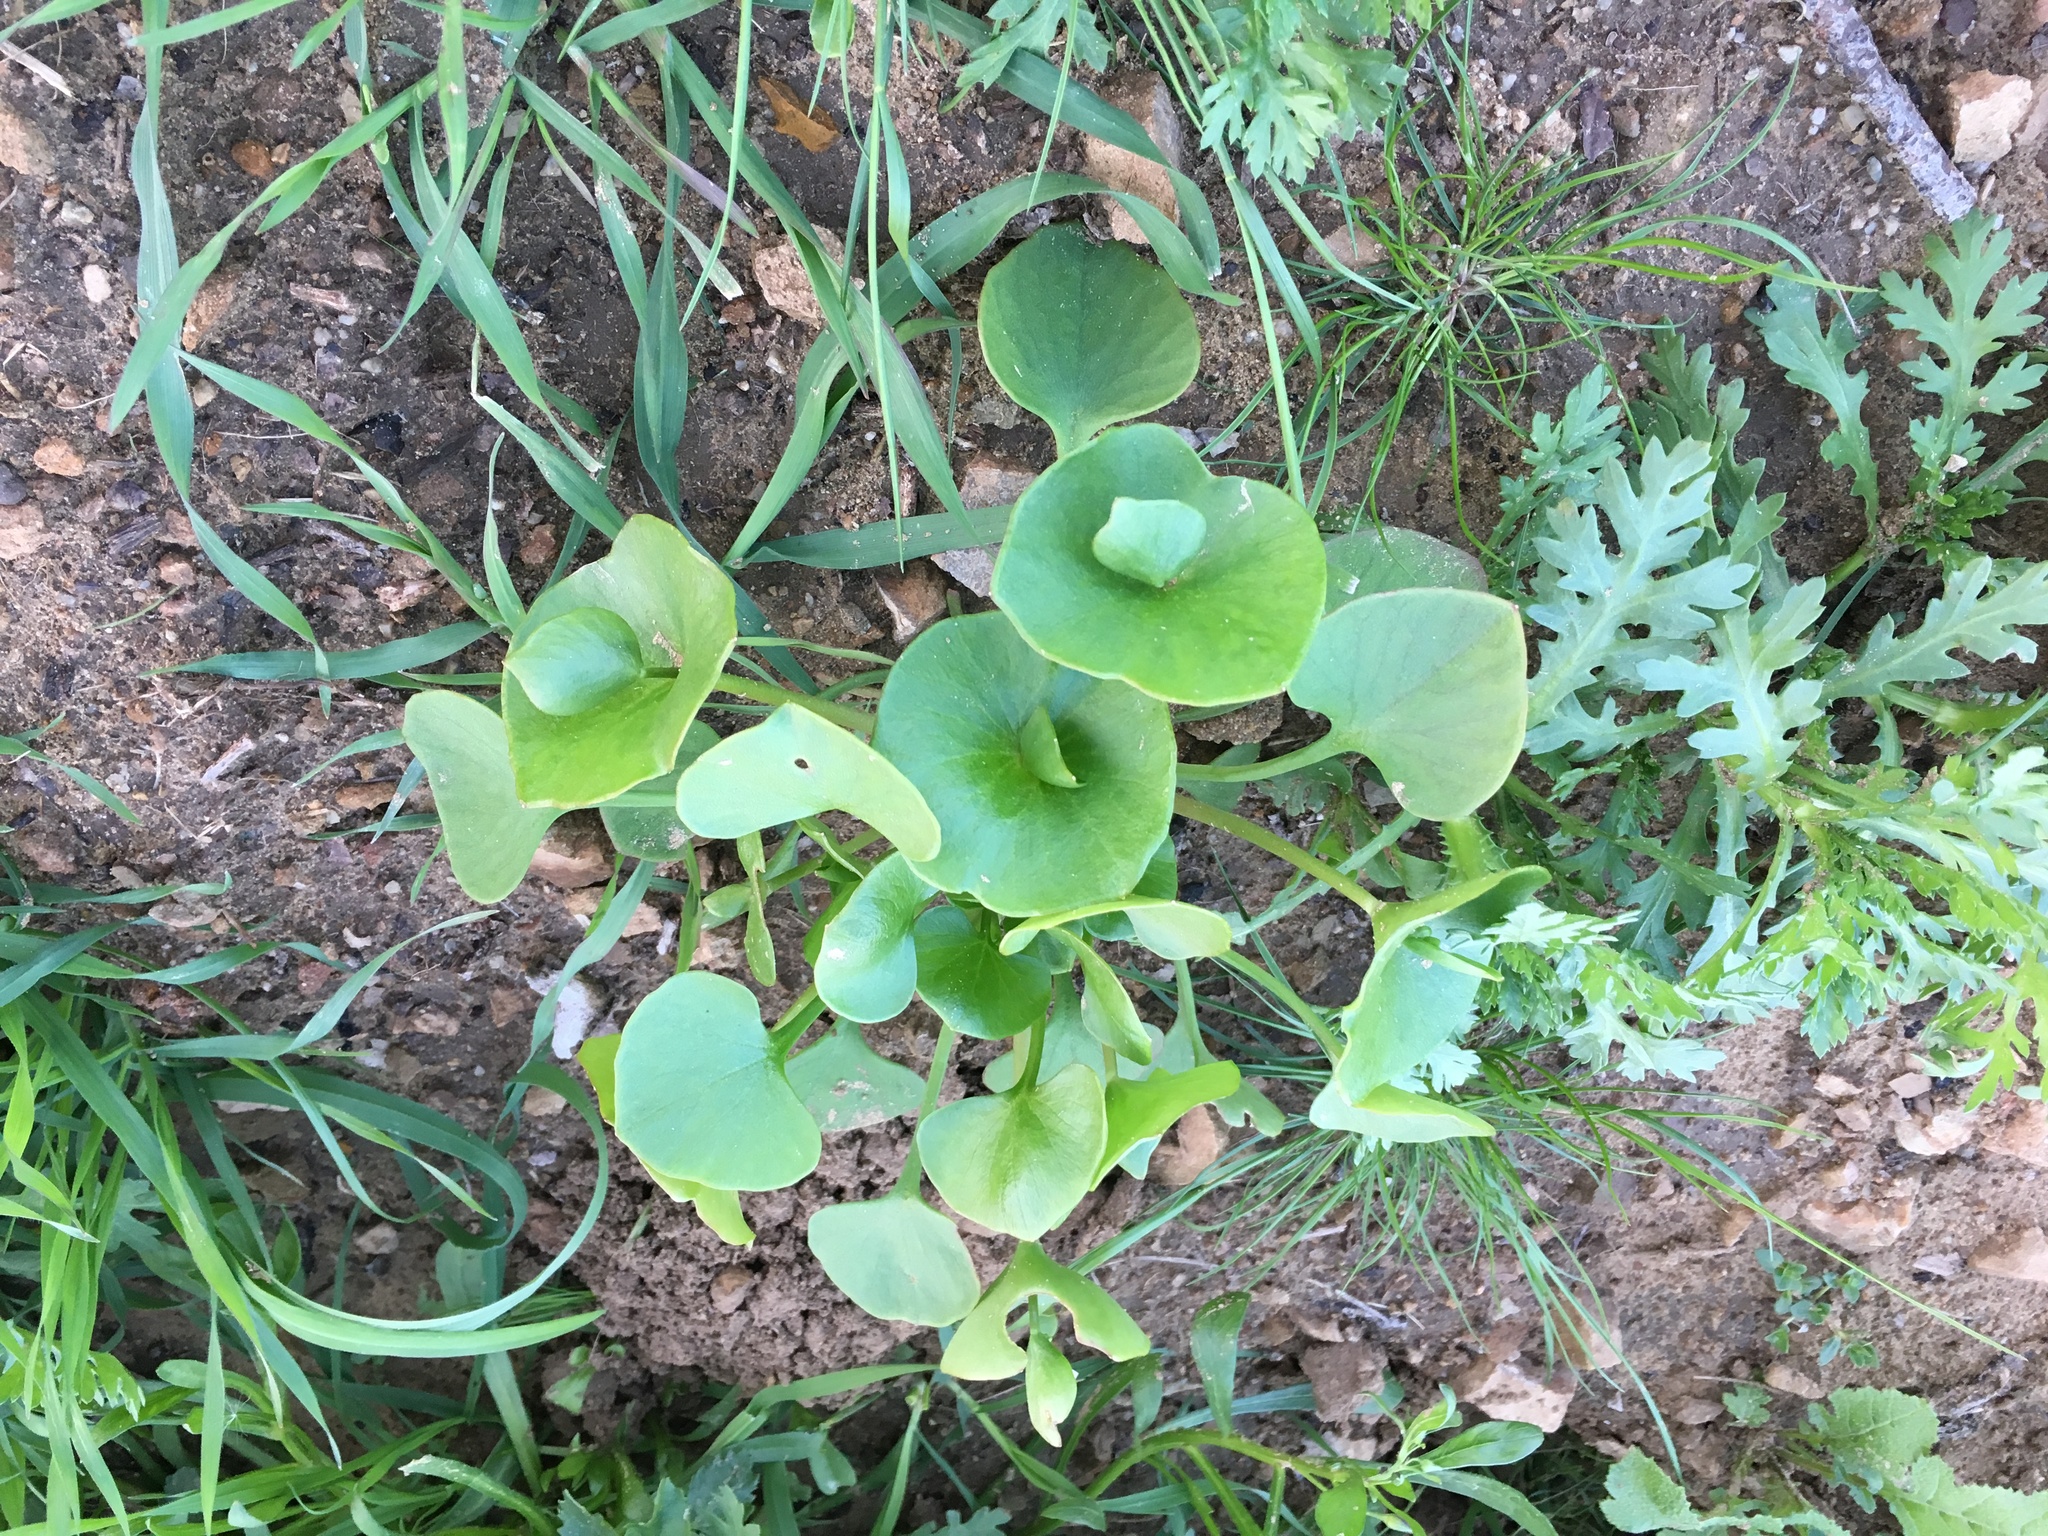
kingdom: Plantae
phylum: Tracheophyta
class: Magnoliopsida
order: Caryophyllales
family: Montiaceae
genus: Claytonia
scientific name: Claytonia perfoliata
